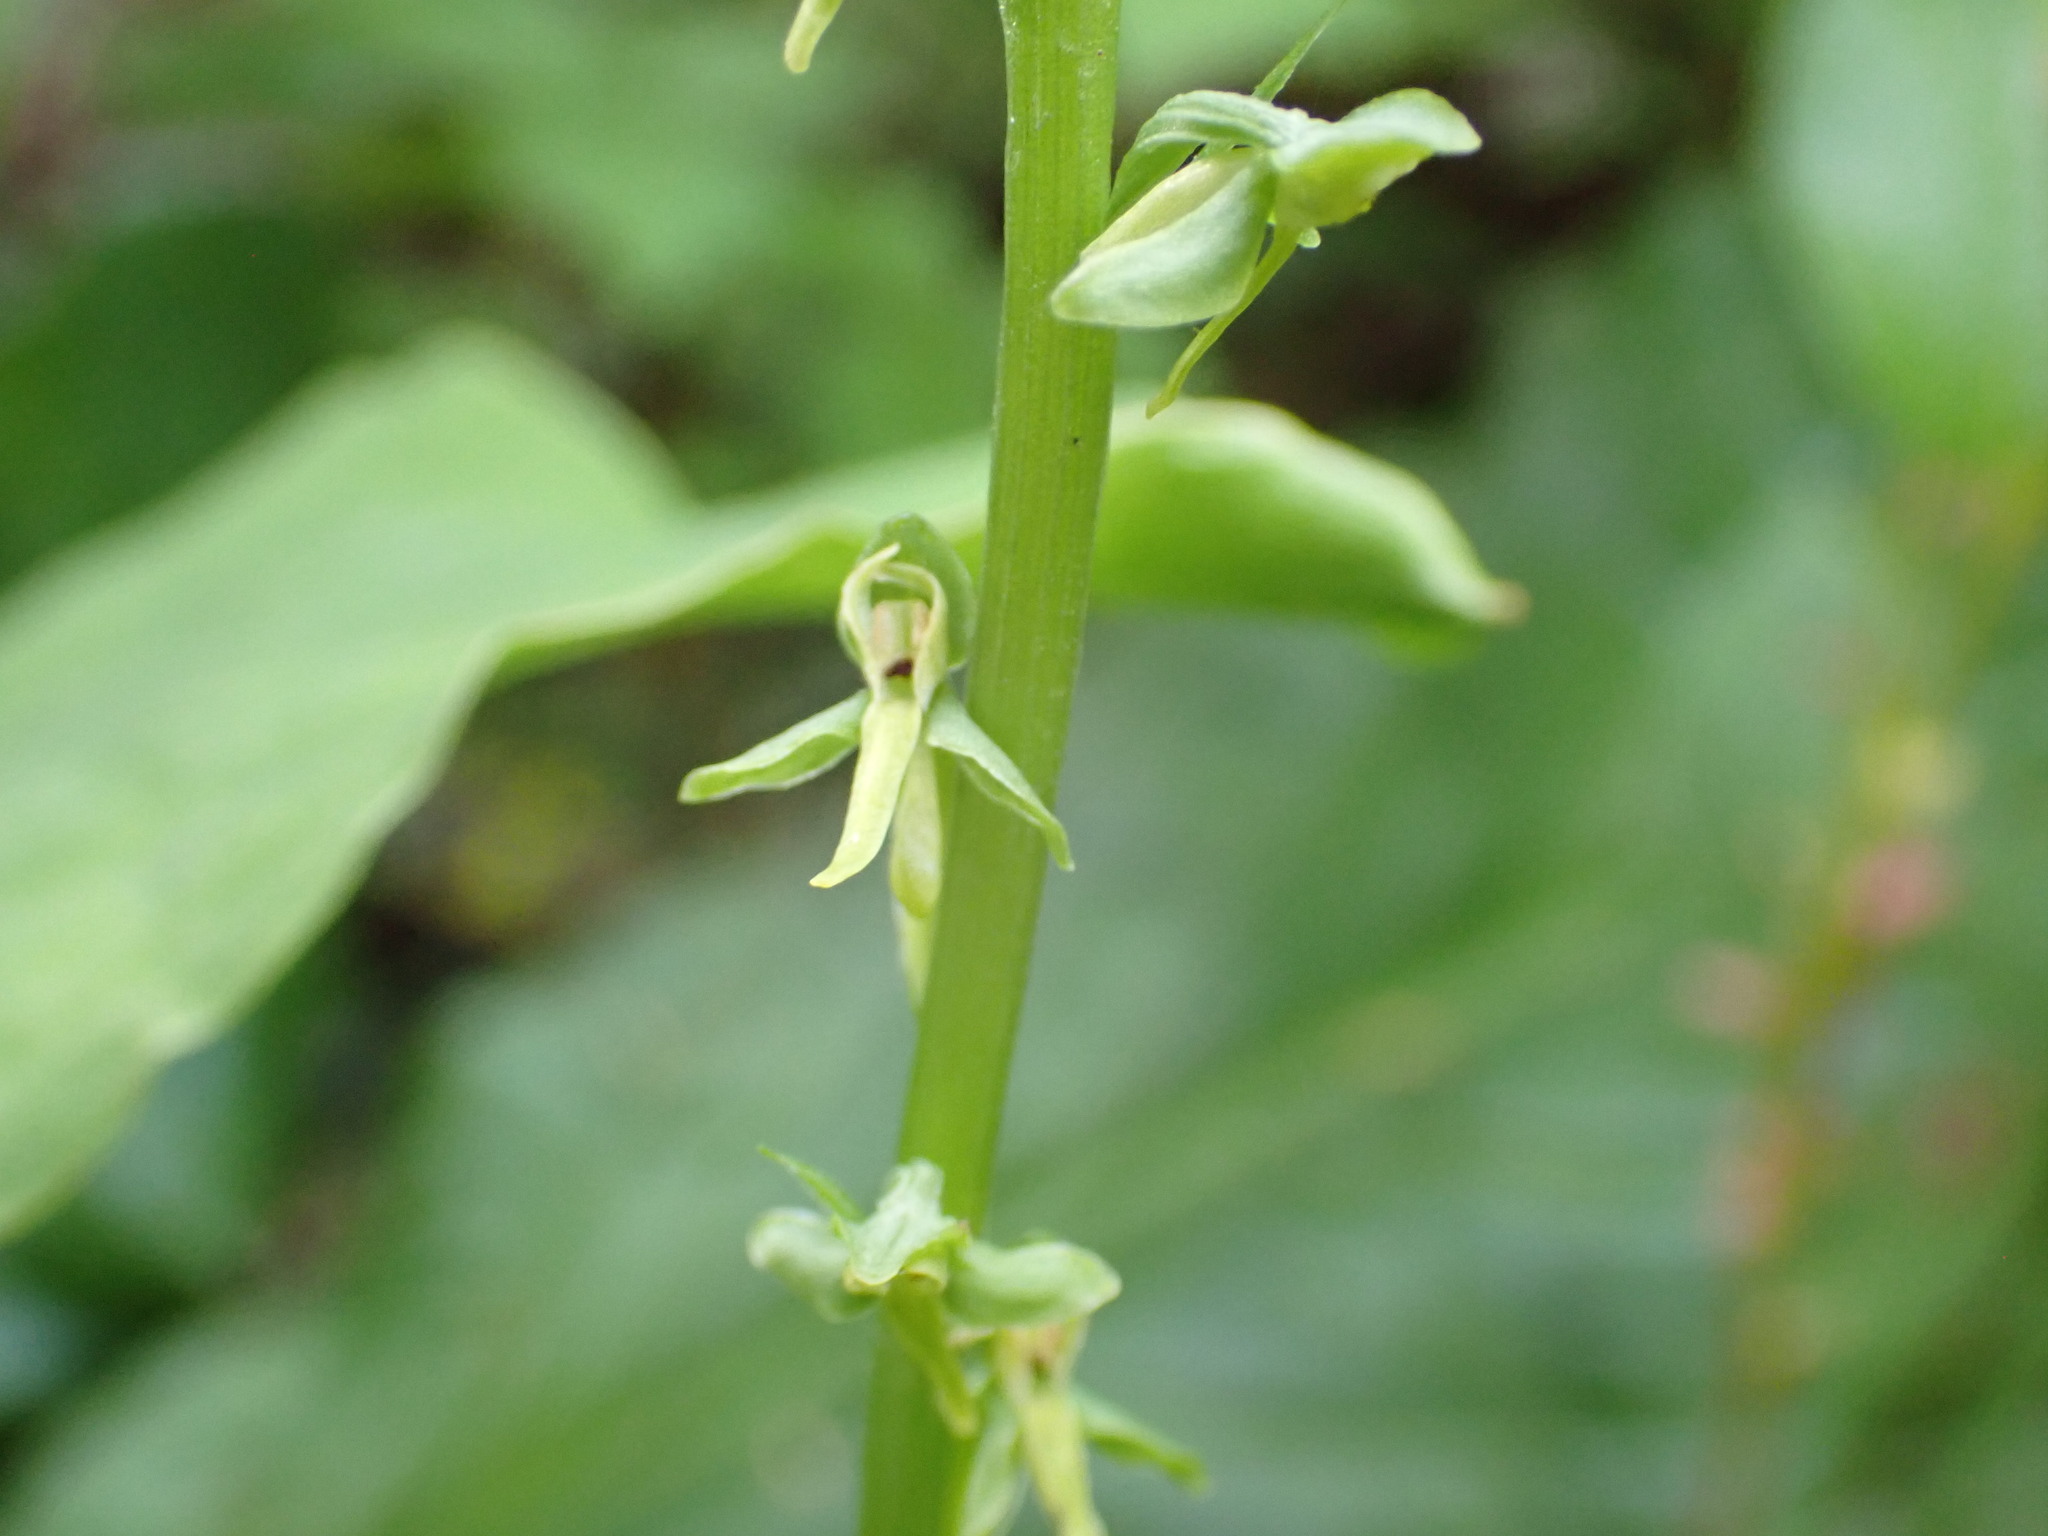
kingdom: Plantae
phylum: Tracheophyta
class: Liliopsida
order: Asparagales
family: Orchidaceae
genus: Platanthera
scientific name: Platanthera stricta
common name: Slender bog orchid
